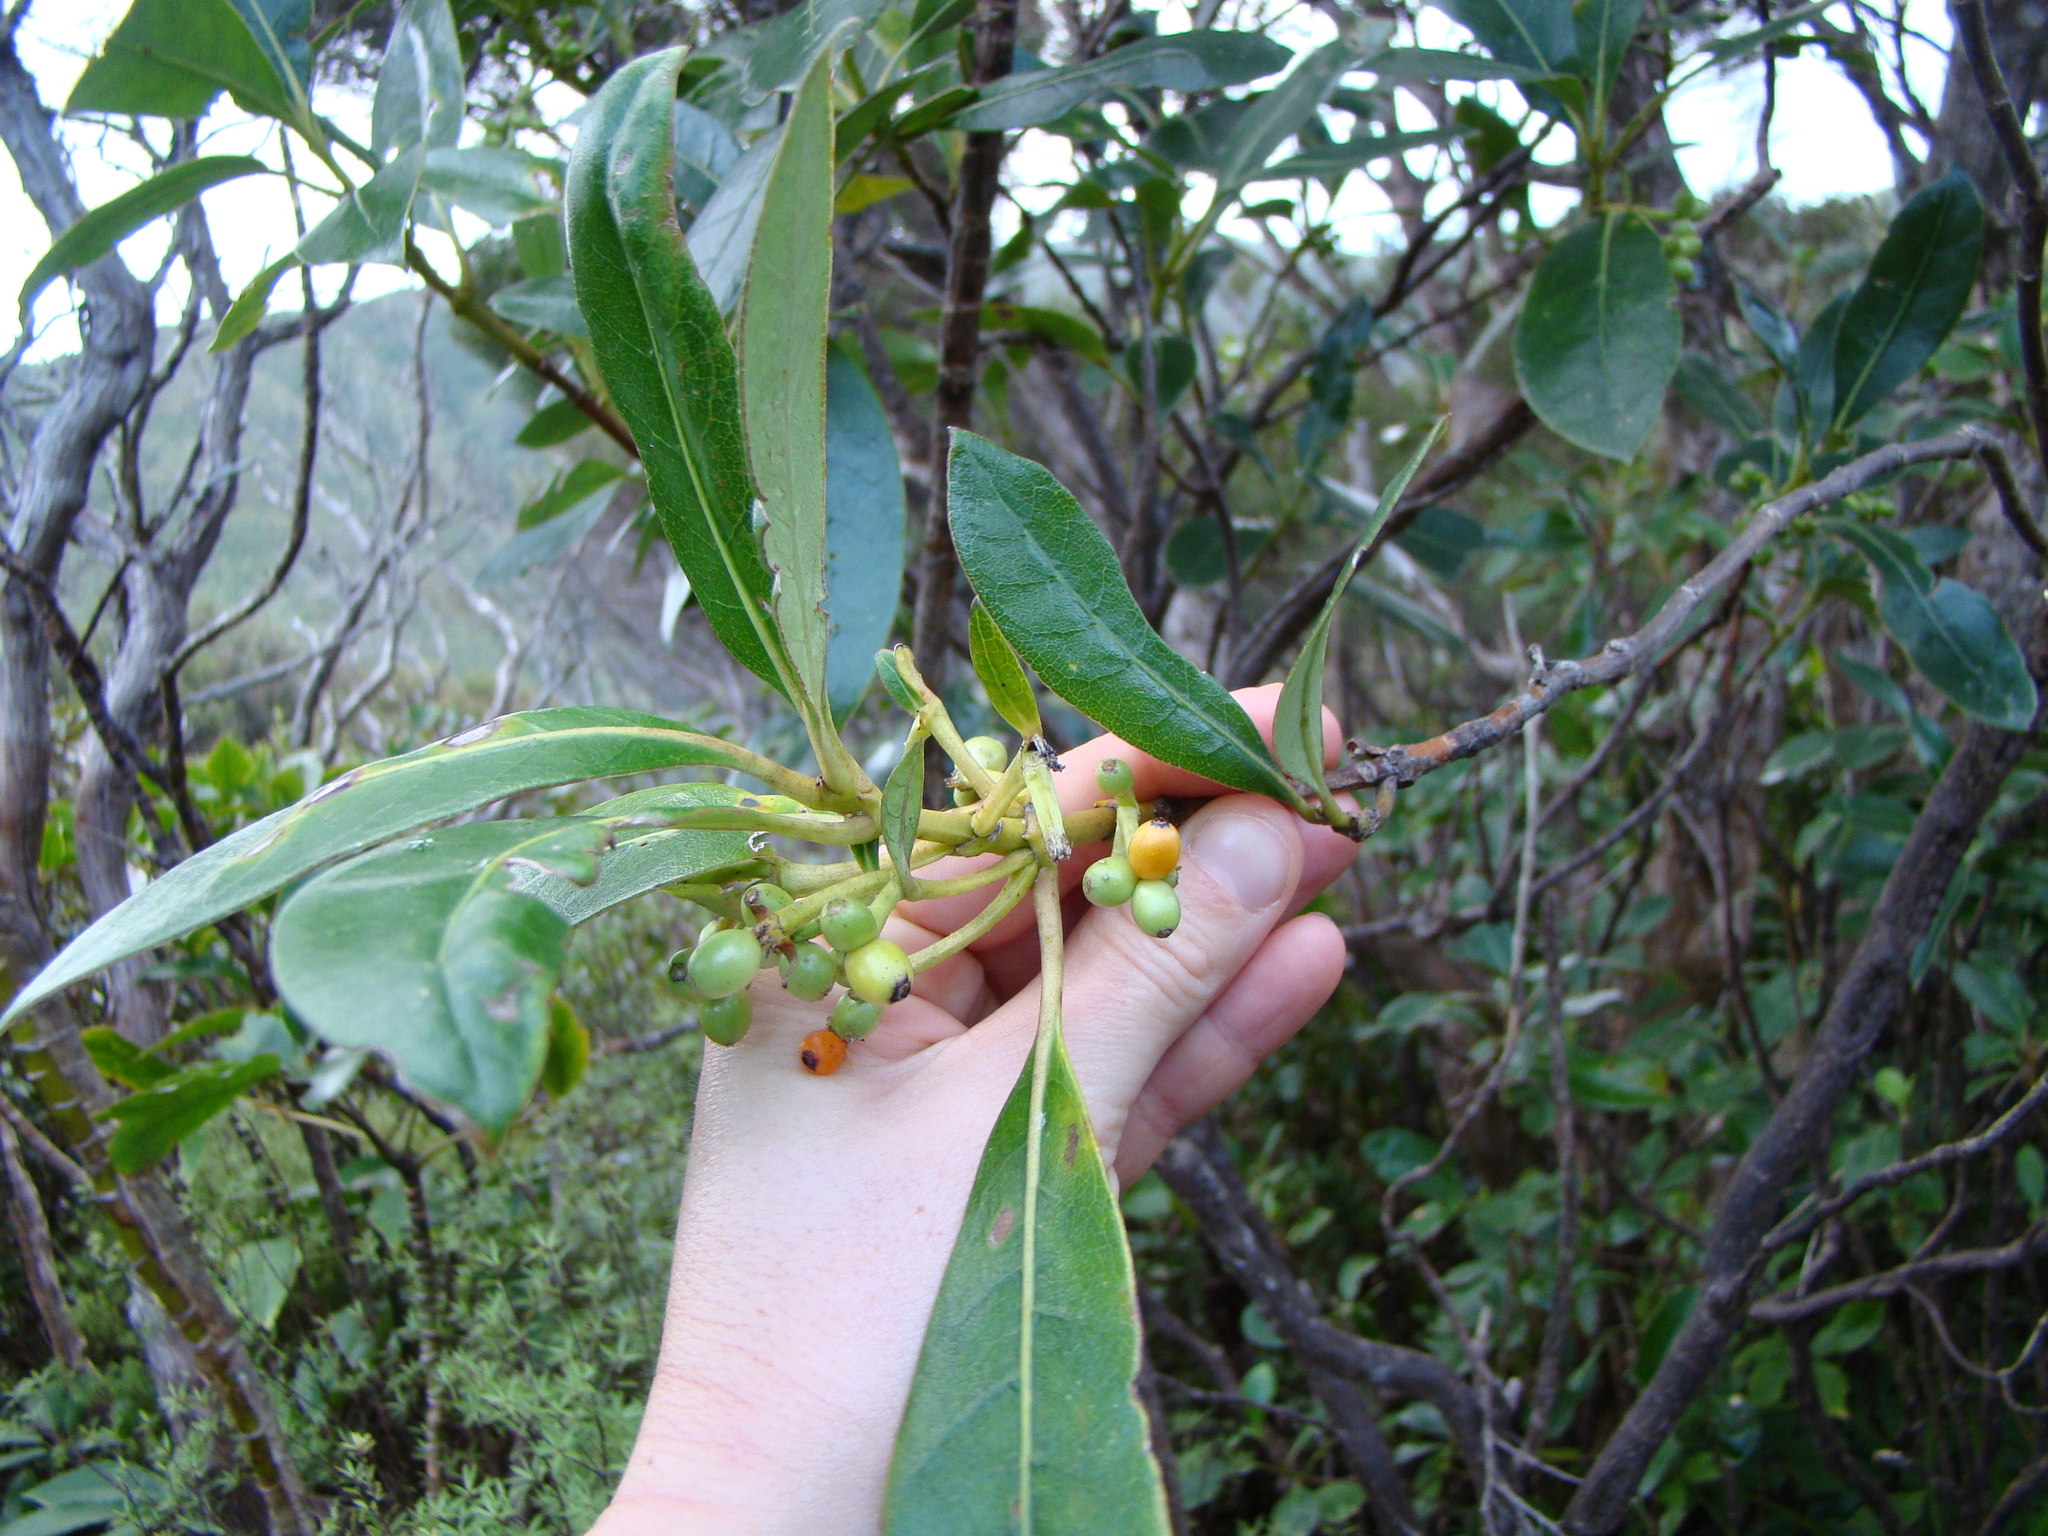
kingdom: Plantae
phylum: Tracheophyta
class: Magnoliopsida
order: Gentianales
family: Rubiaceae
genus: Coprosma
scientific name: Coprosma lucida
